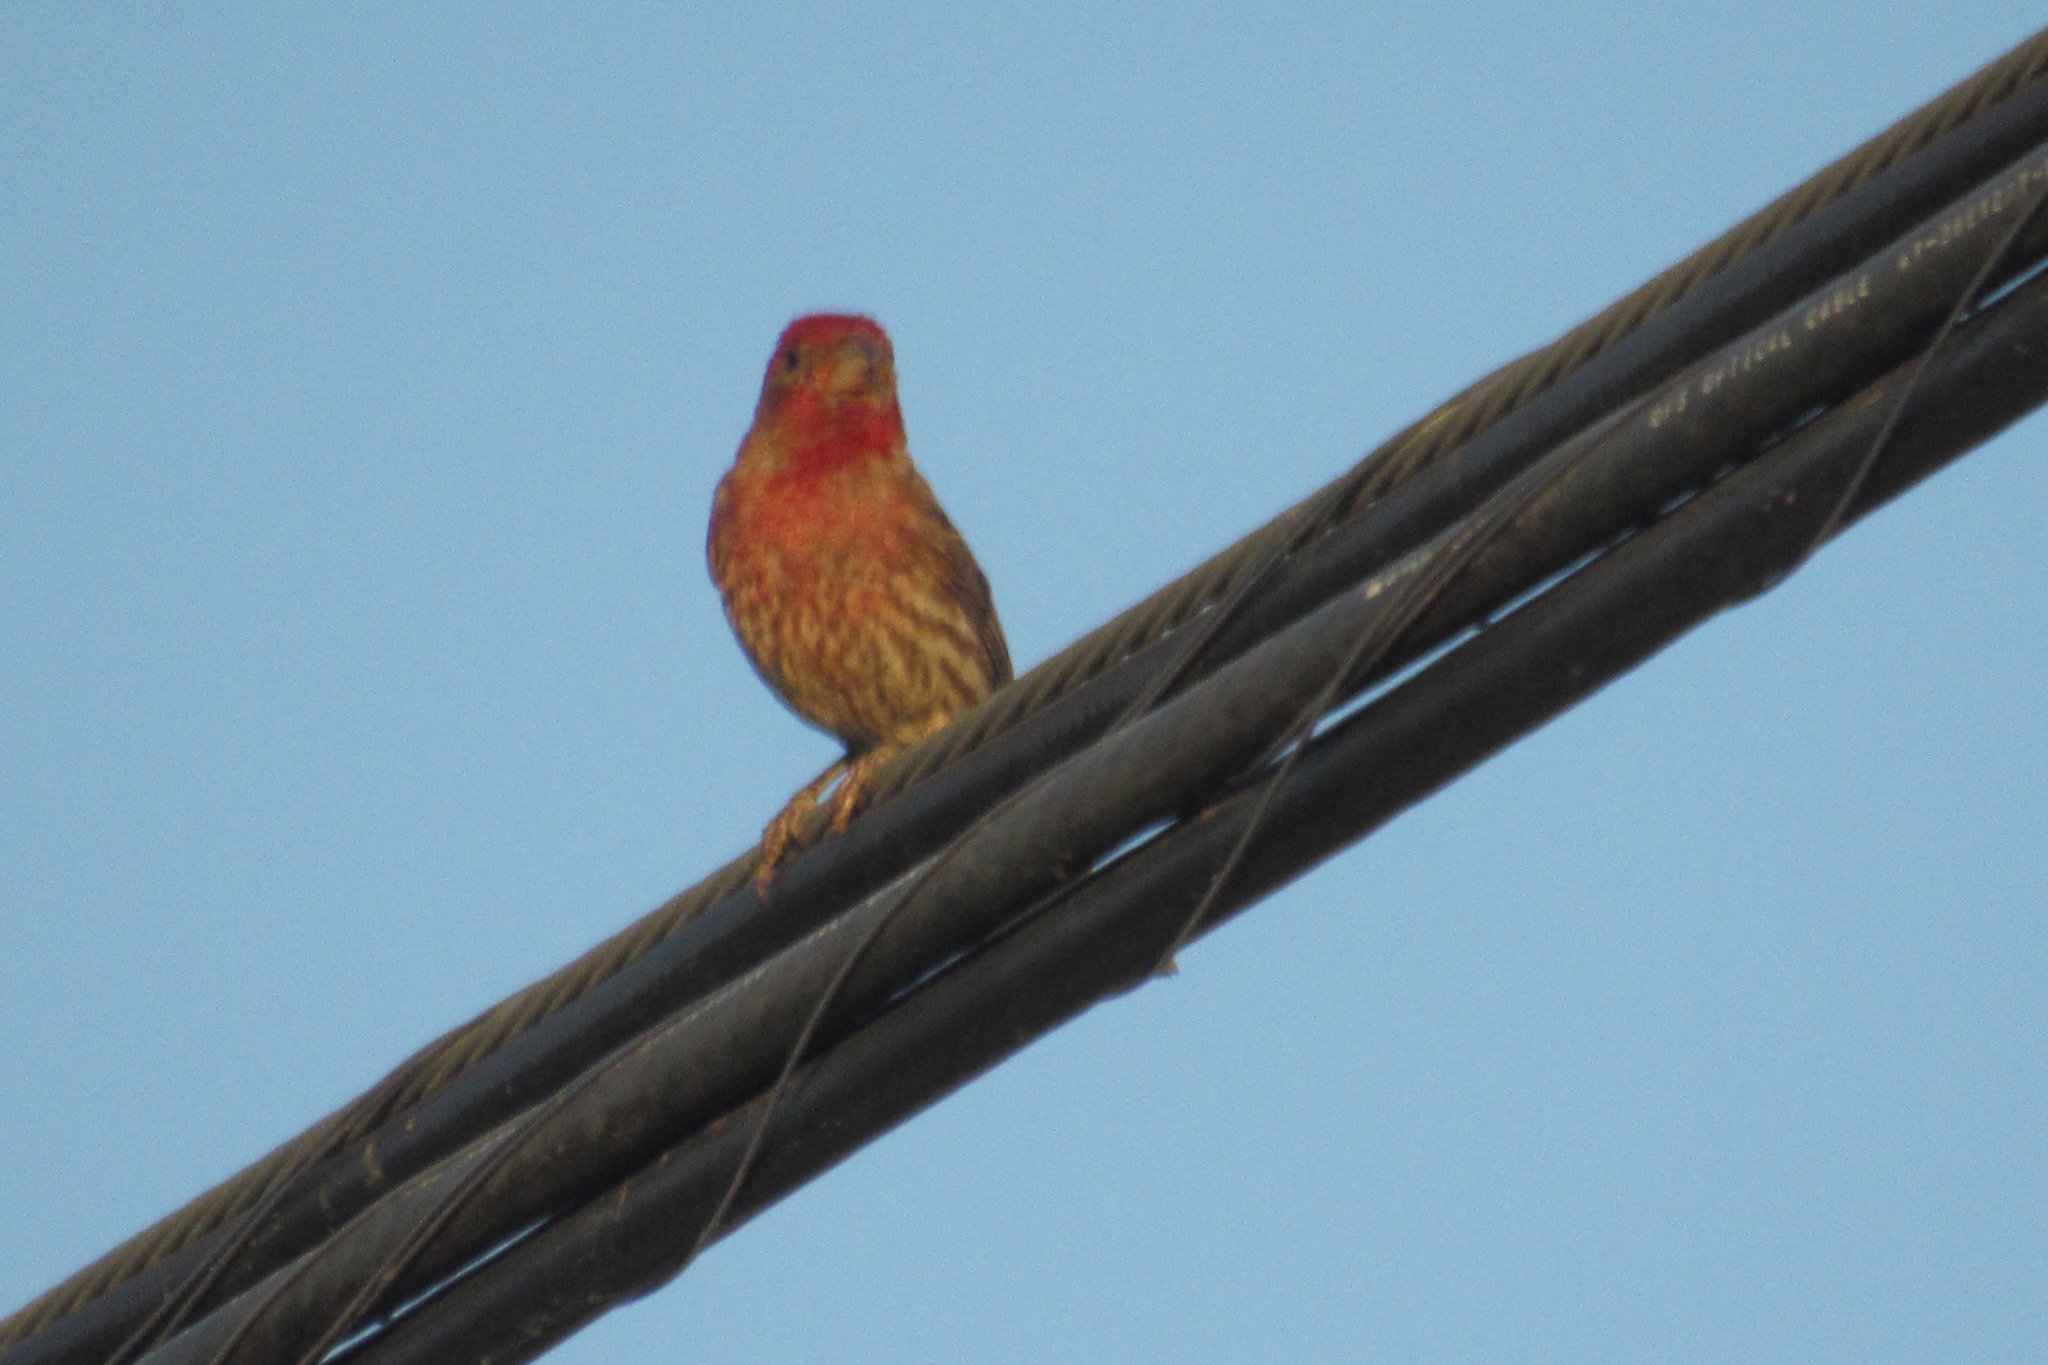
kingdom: Animalia
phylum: Chordata
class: Aves
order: Passeriformes
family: Fringillidae
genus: Haemorhous
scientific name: Haemorhous mexicanus
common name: House finch
